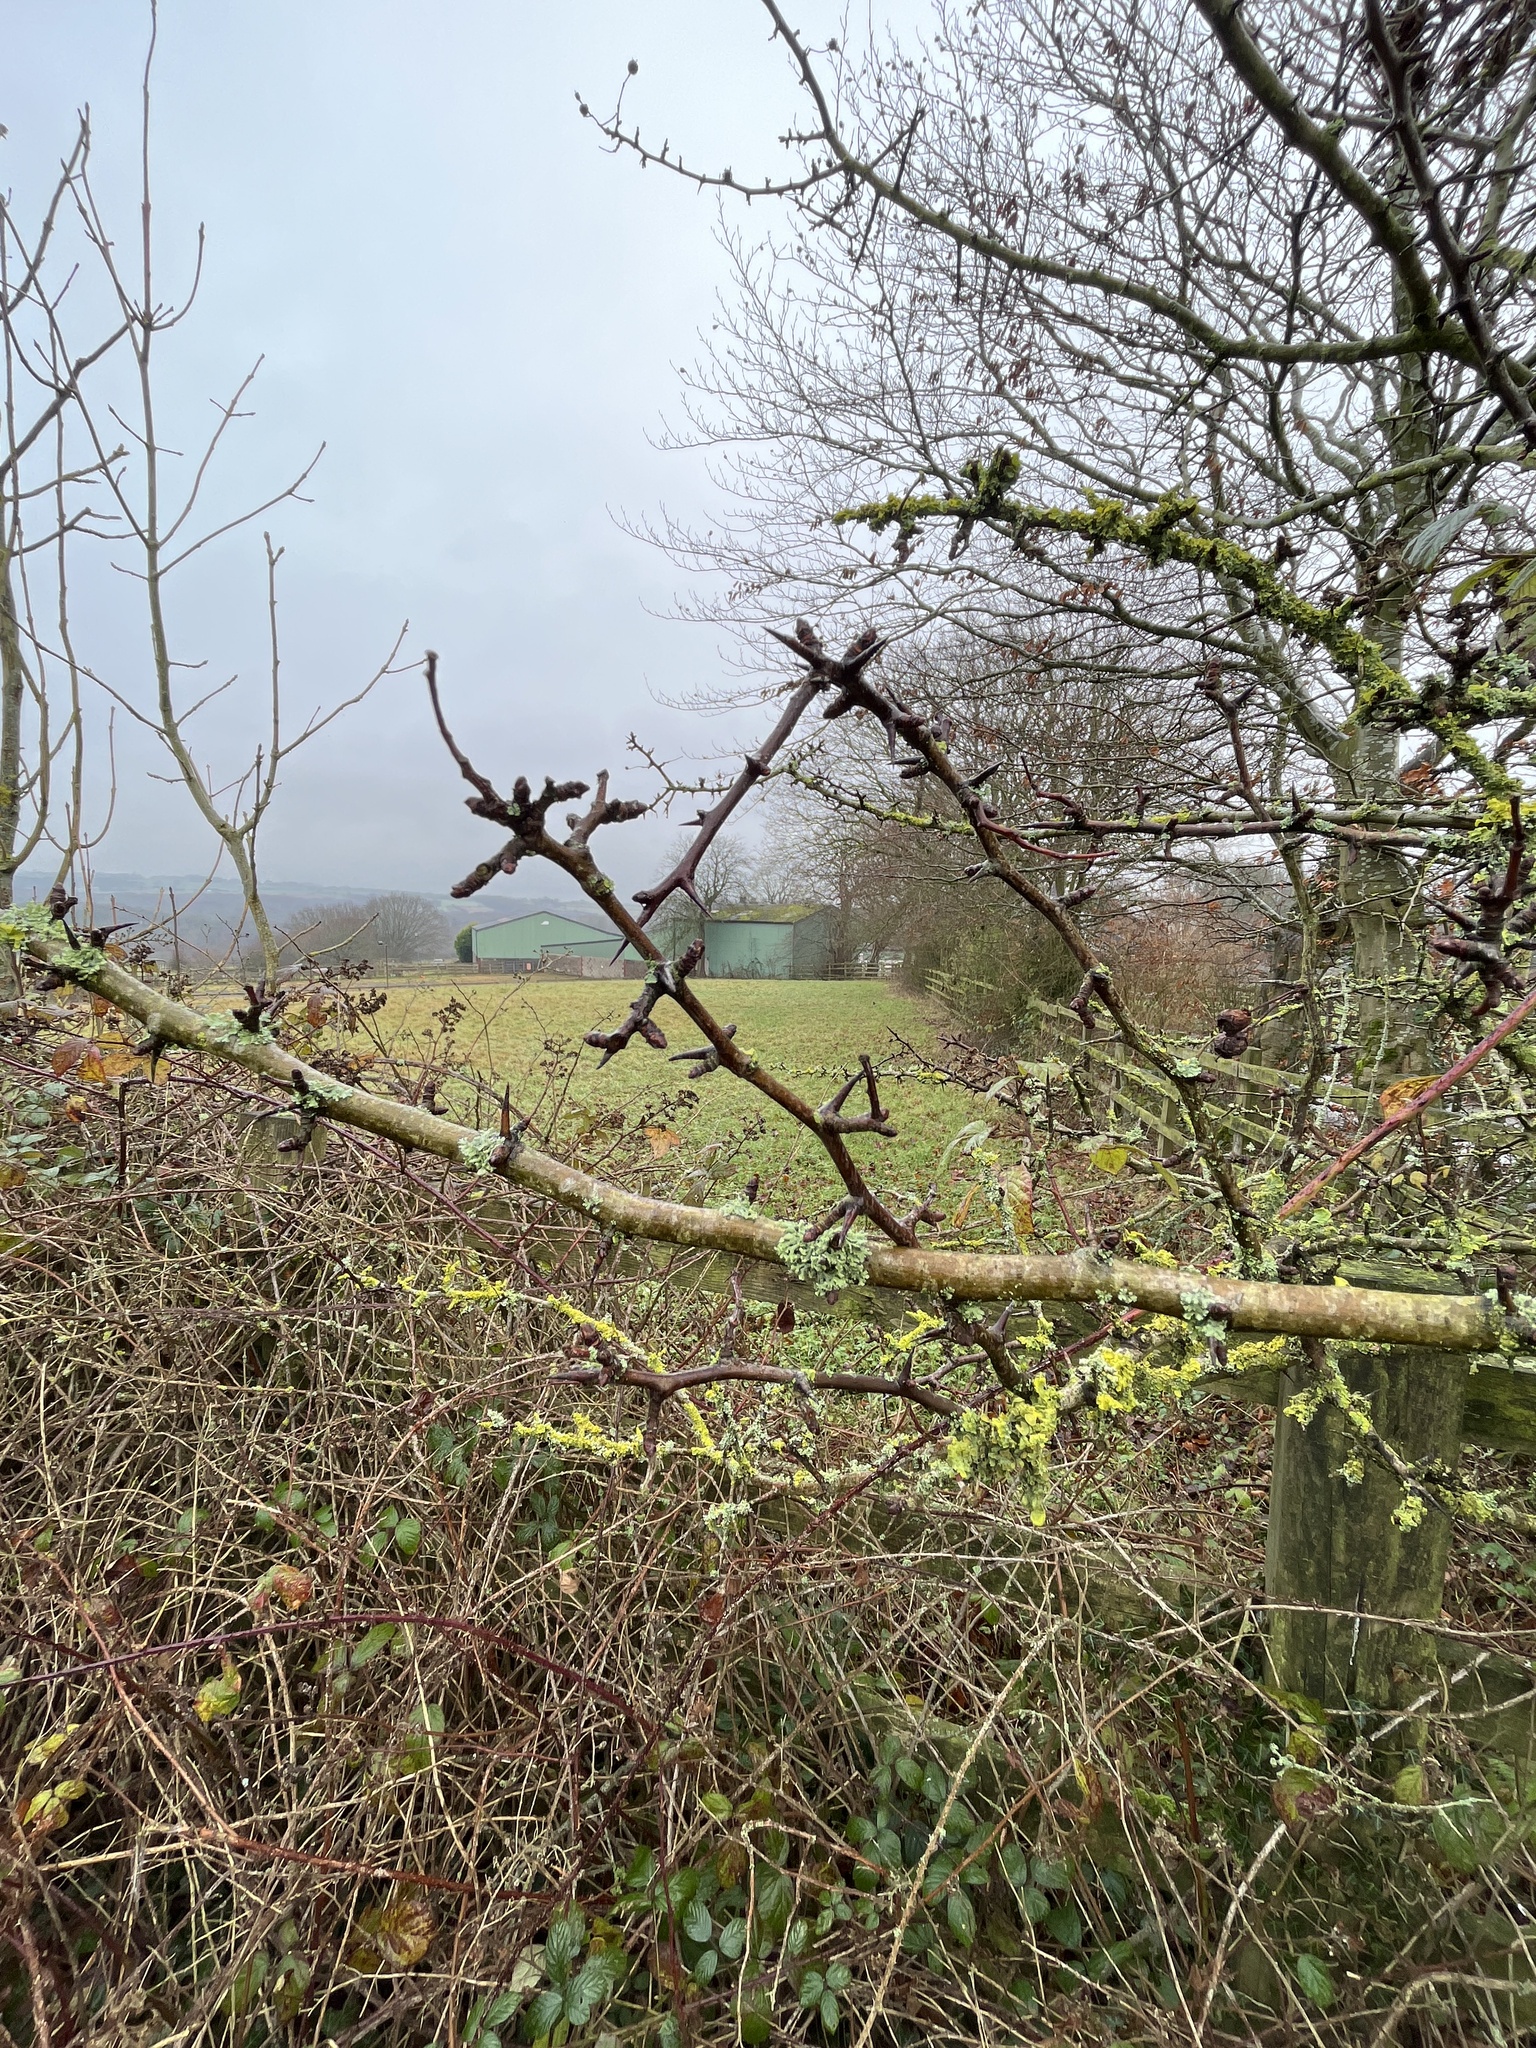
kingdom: Plantae
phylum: Tracheophyta
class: Magnoliopsida
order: Rosales
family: Rosaceae
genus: Crataegus
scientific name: Crataegus monogyna
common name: Hawthorn
